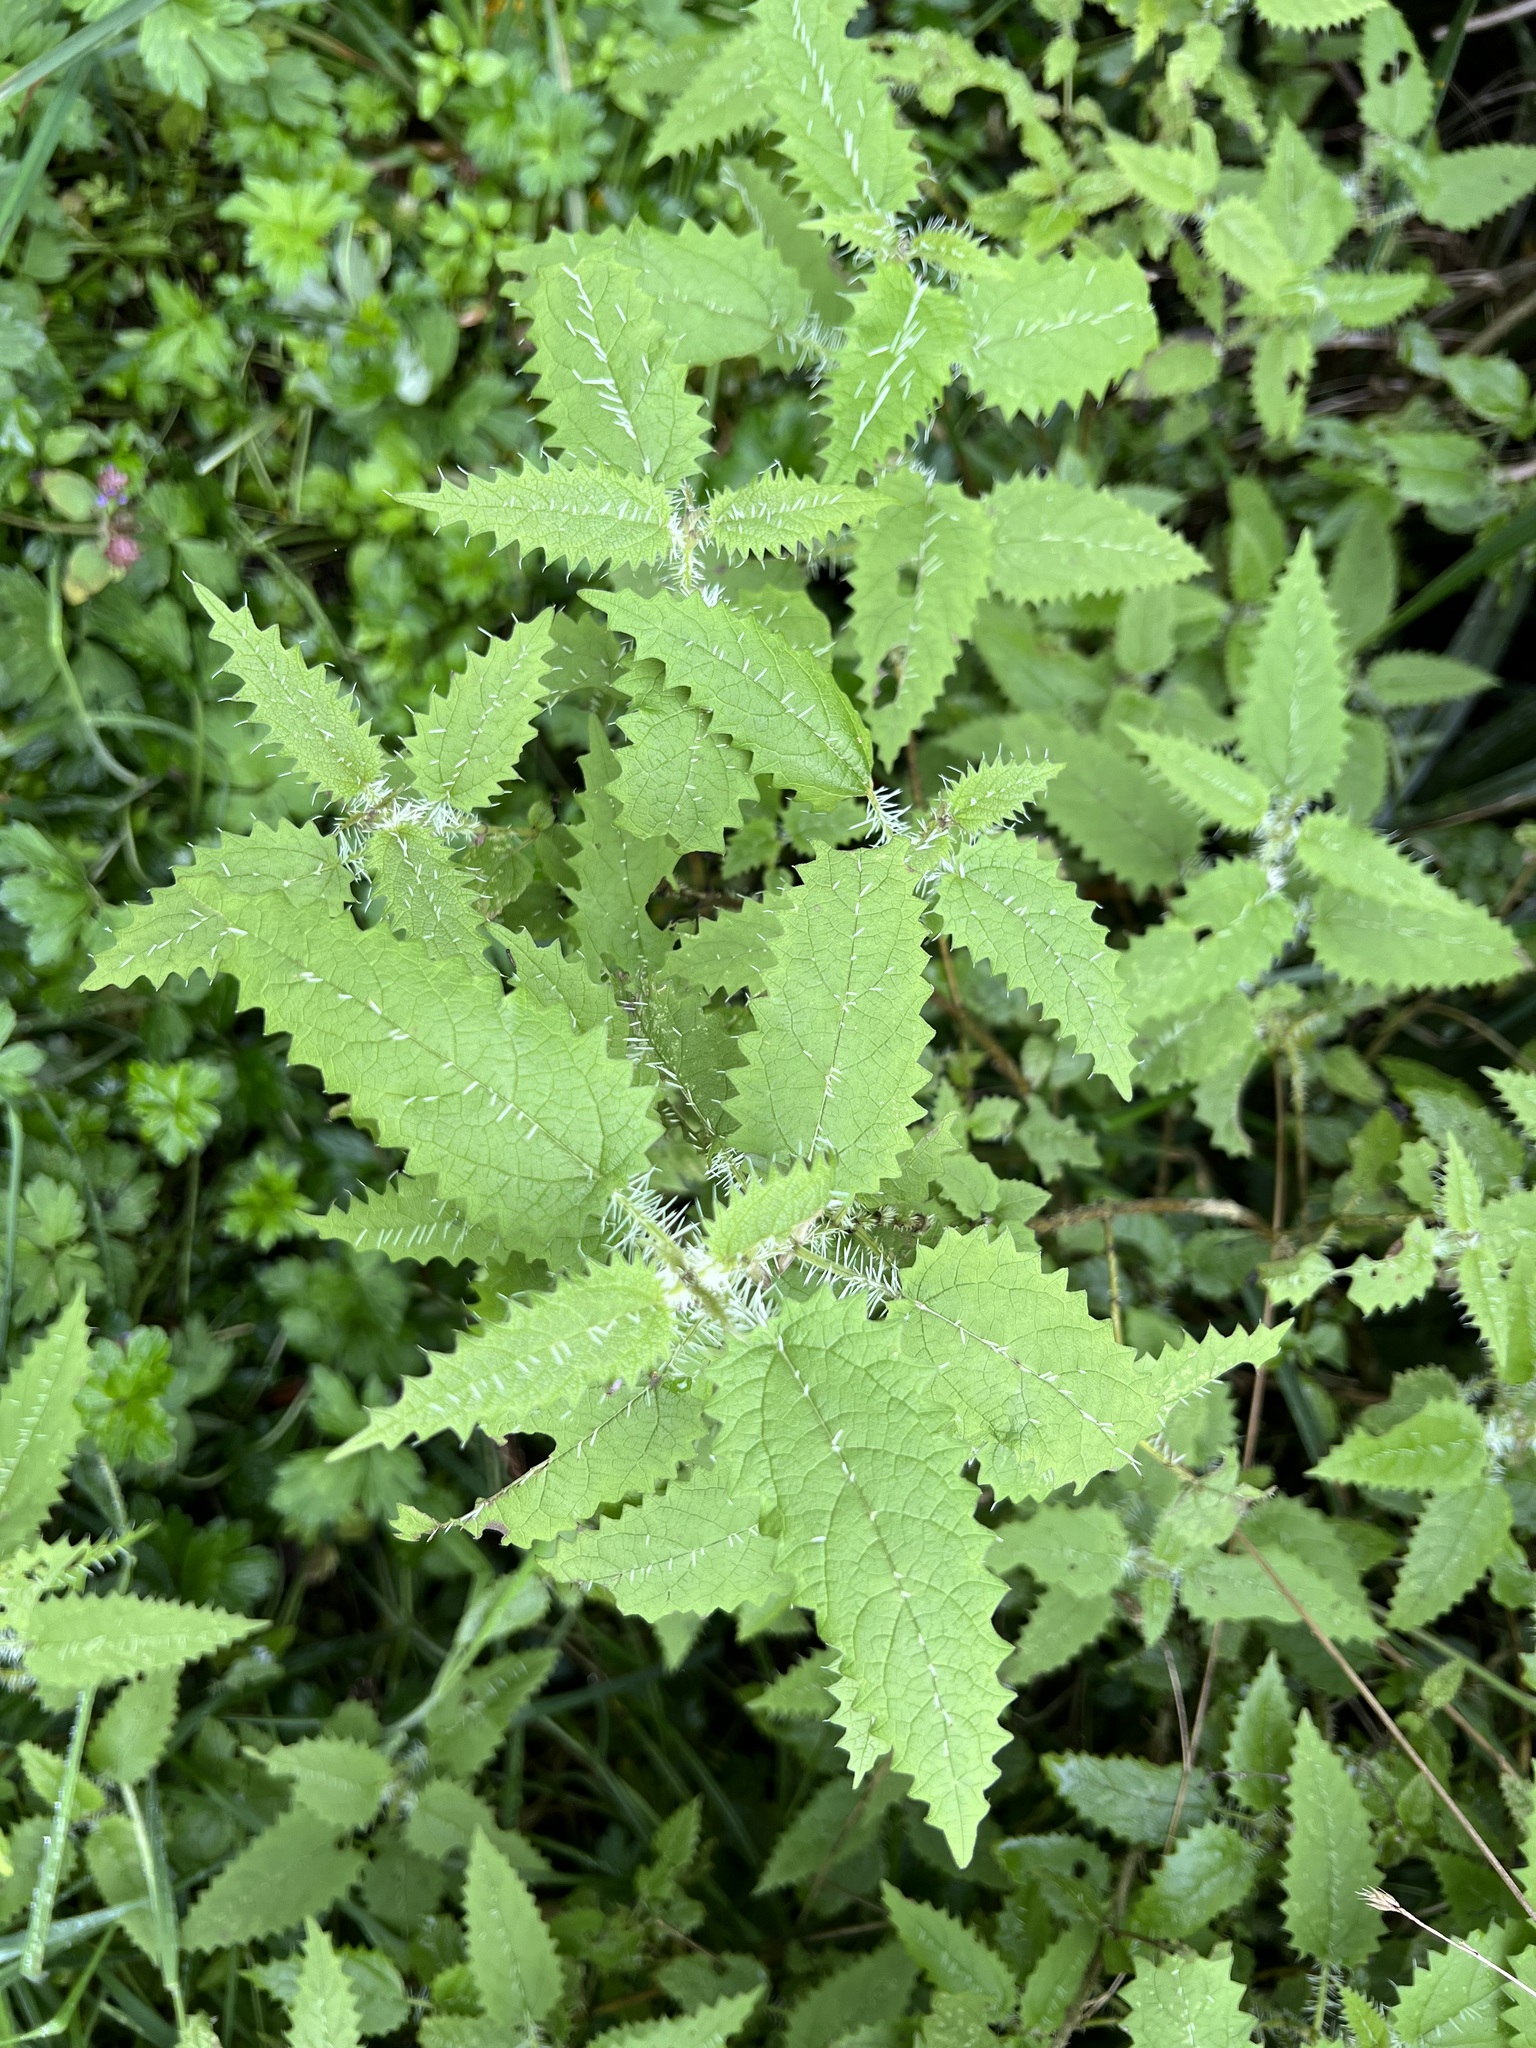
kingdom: Plantae
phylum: Tracheophyta
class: Magnoliopsida
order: Rosales
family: Urticaceae
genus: Urtica
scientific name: Urtica ferox
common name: Tree nettle
